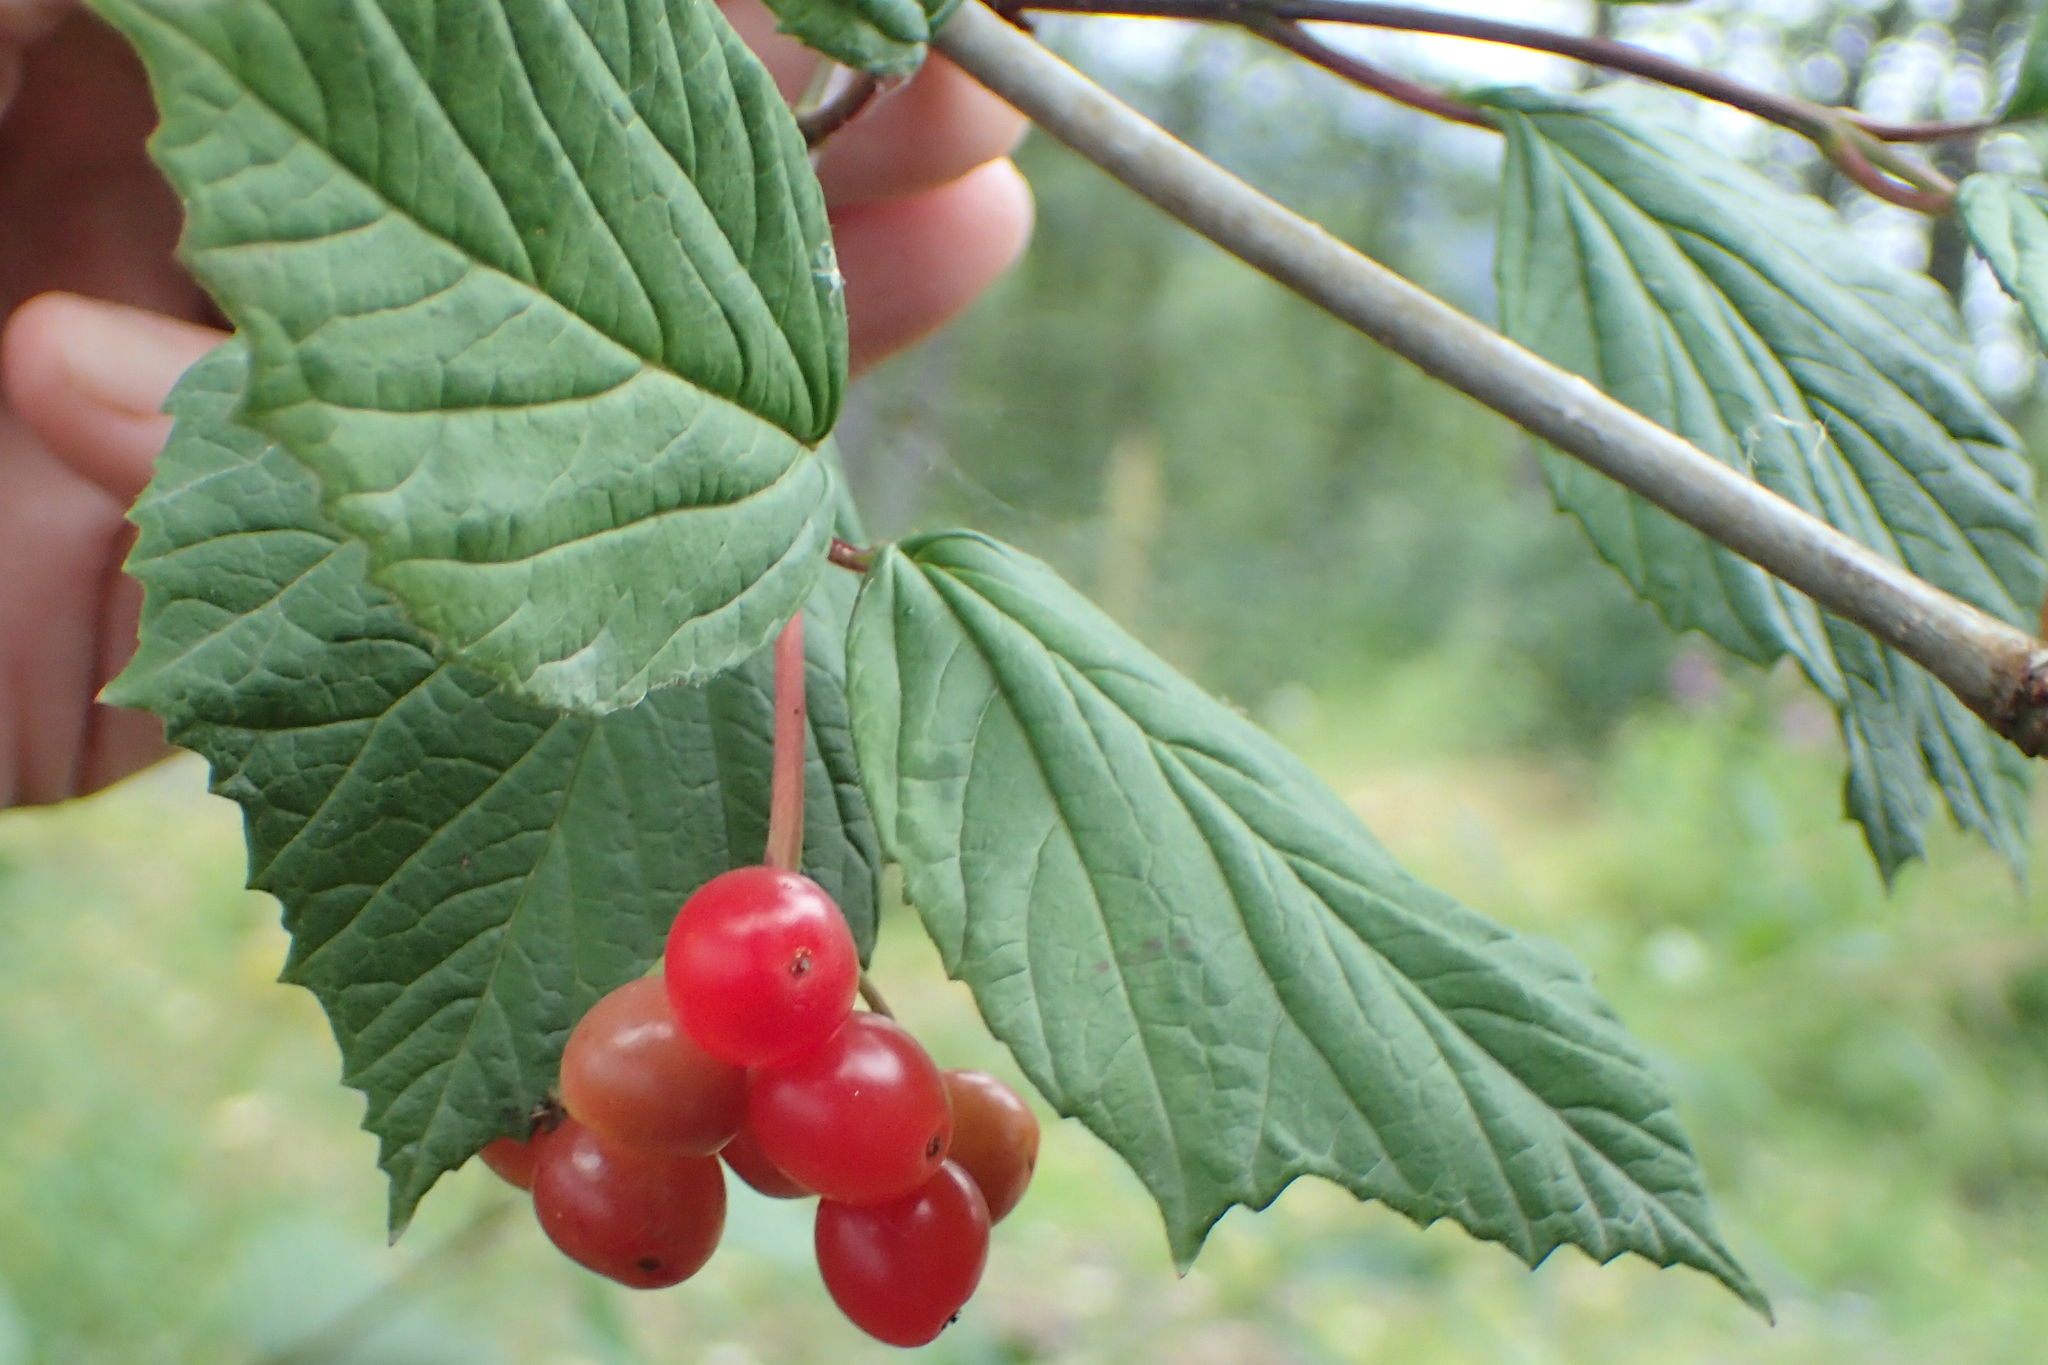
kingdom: Plantae
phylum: Tracheophyta
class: Magnoliopsida
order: Dipsacales
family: Viburnaceae
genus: Viburnum
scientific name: Viburnum edule
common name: Mooseberry
